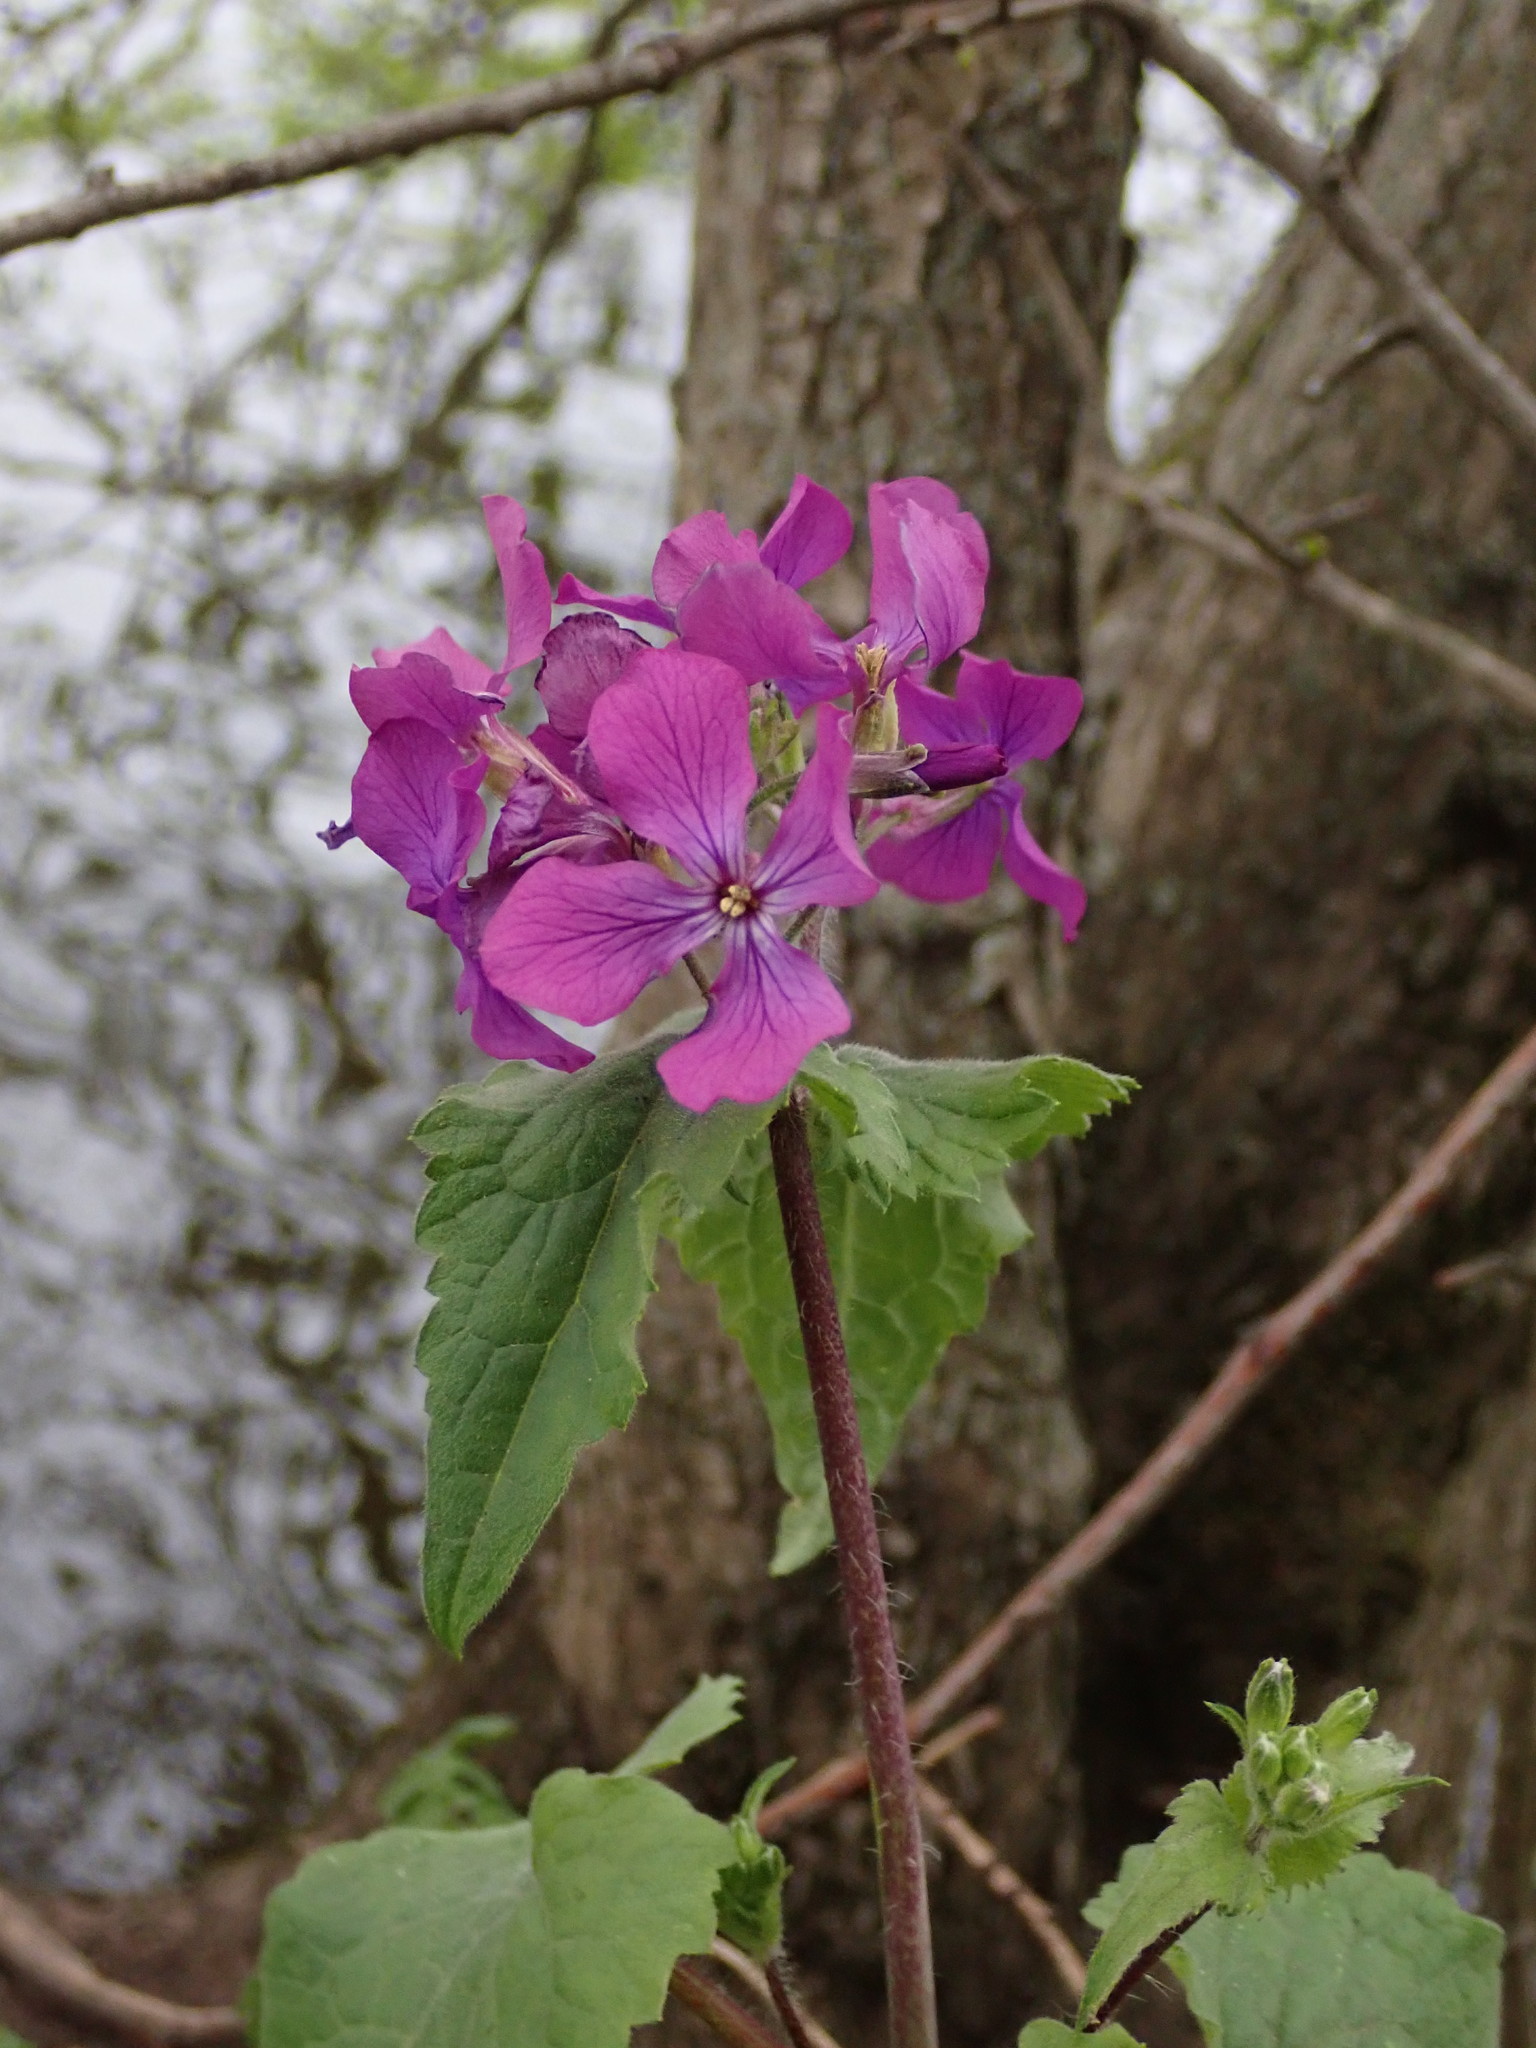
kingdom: Plantae
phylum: Tracheophyta
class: Magnoliopsida
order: Brassicales
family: Brassicaceae
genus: Lunaria
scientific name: Lunaria annua
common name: Honesty
